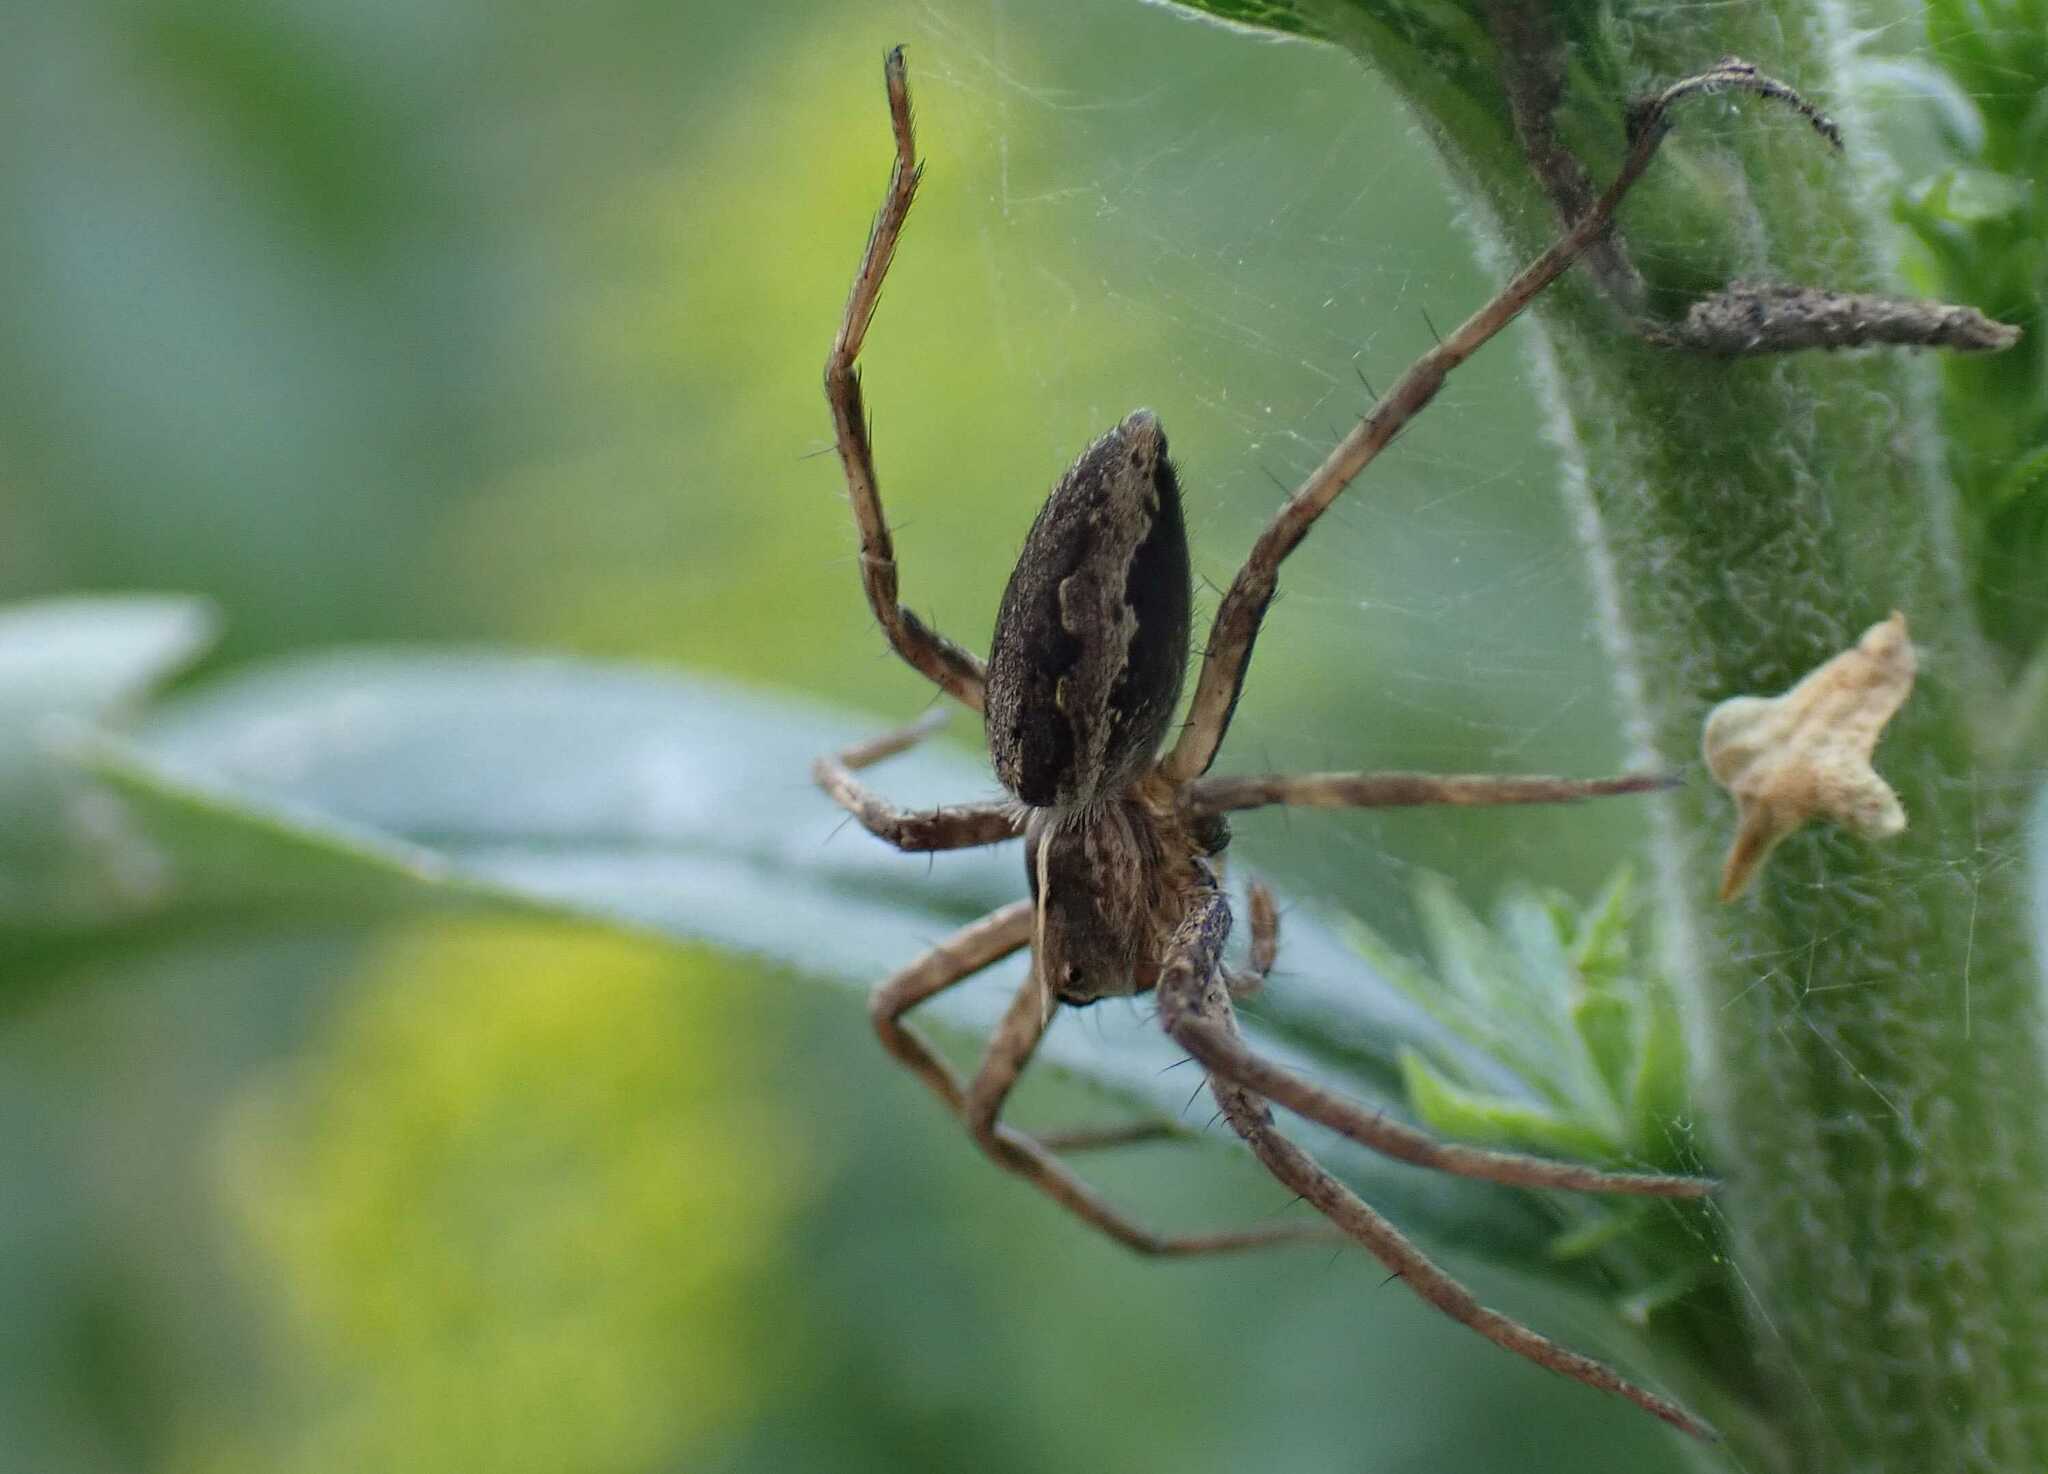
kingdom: Animalia
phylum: Arthropoda
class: Arachnida
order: Araneae
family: Pisauridae
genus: Pisaura
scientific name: Pisaura mirabilis
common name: Tent spider
